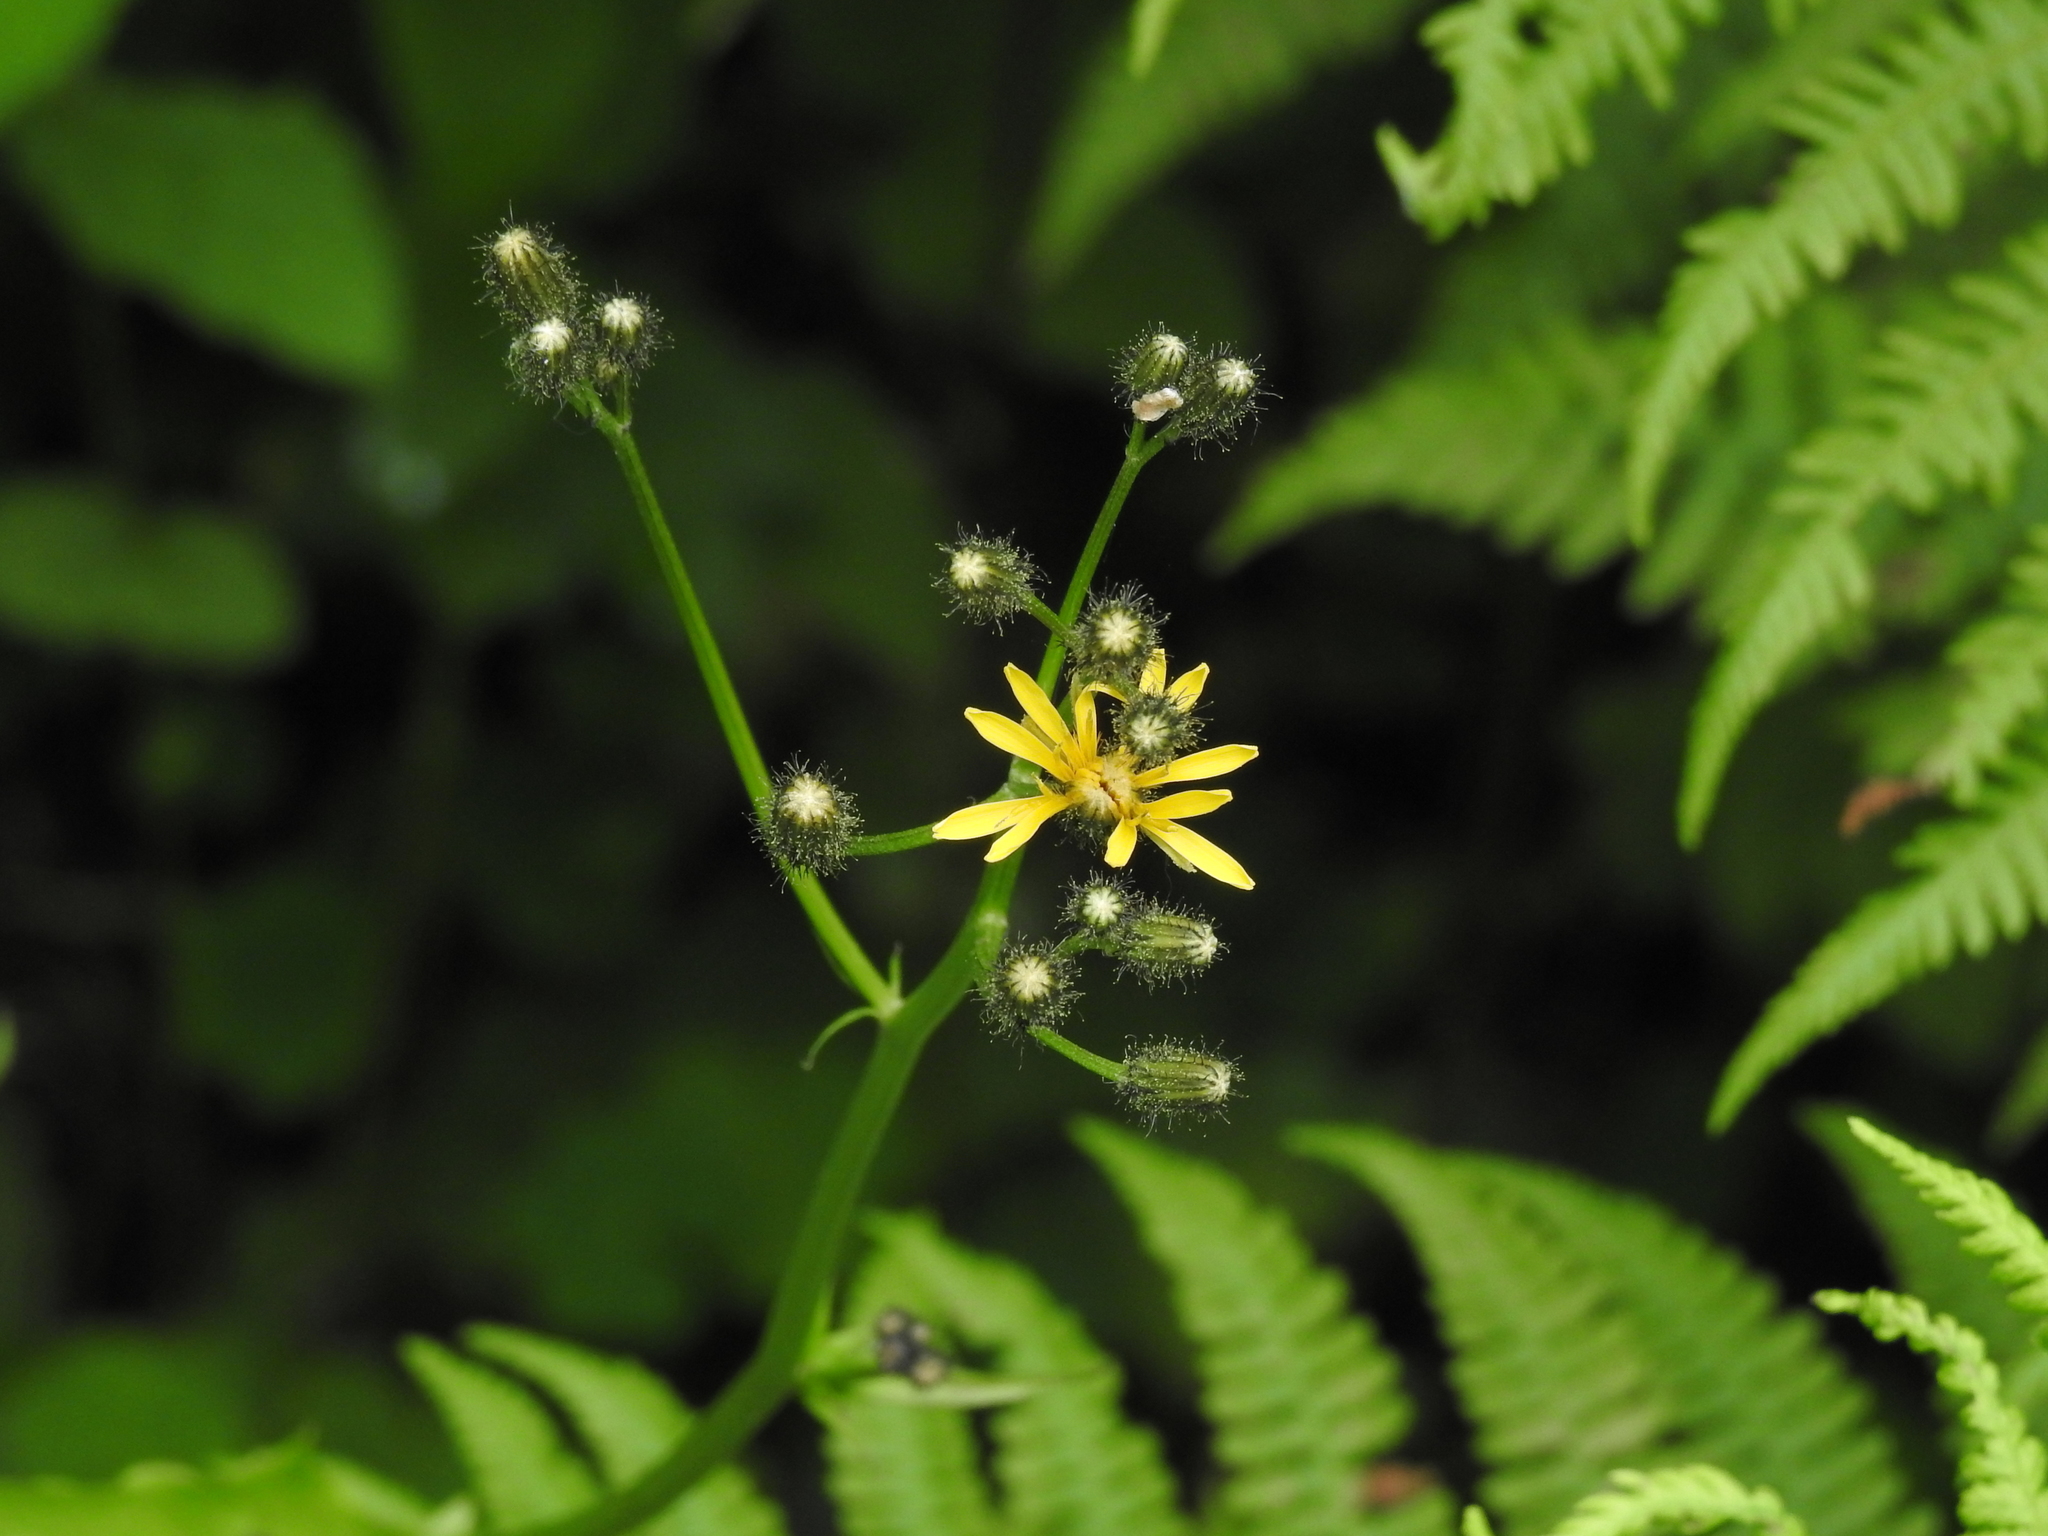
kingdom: Plantae
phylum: Tracheophyta
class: Magnoliopsida
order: Asterales
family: Asteraceae
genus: Crepis
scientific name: Crepis paludosa
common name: Marsh hawk's-beard
